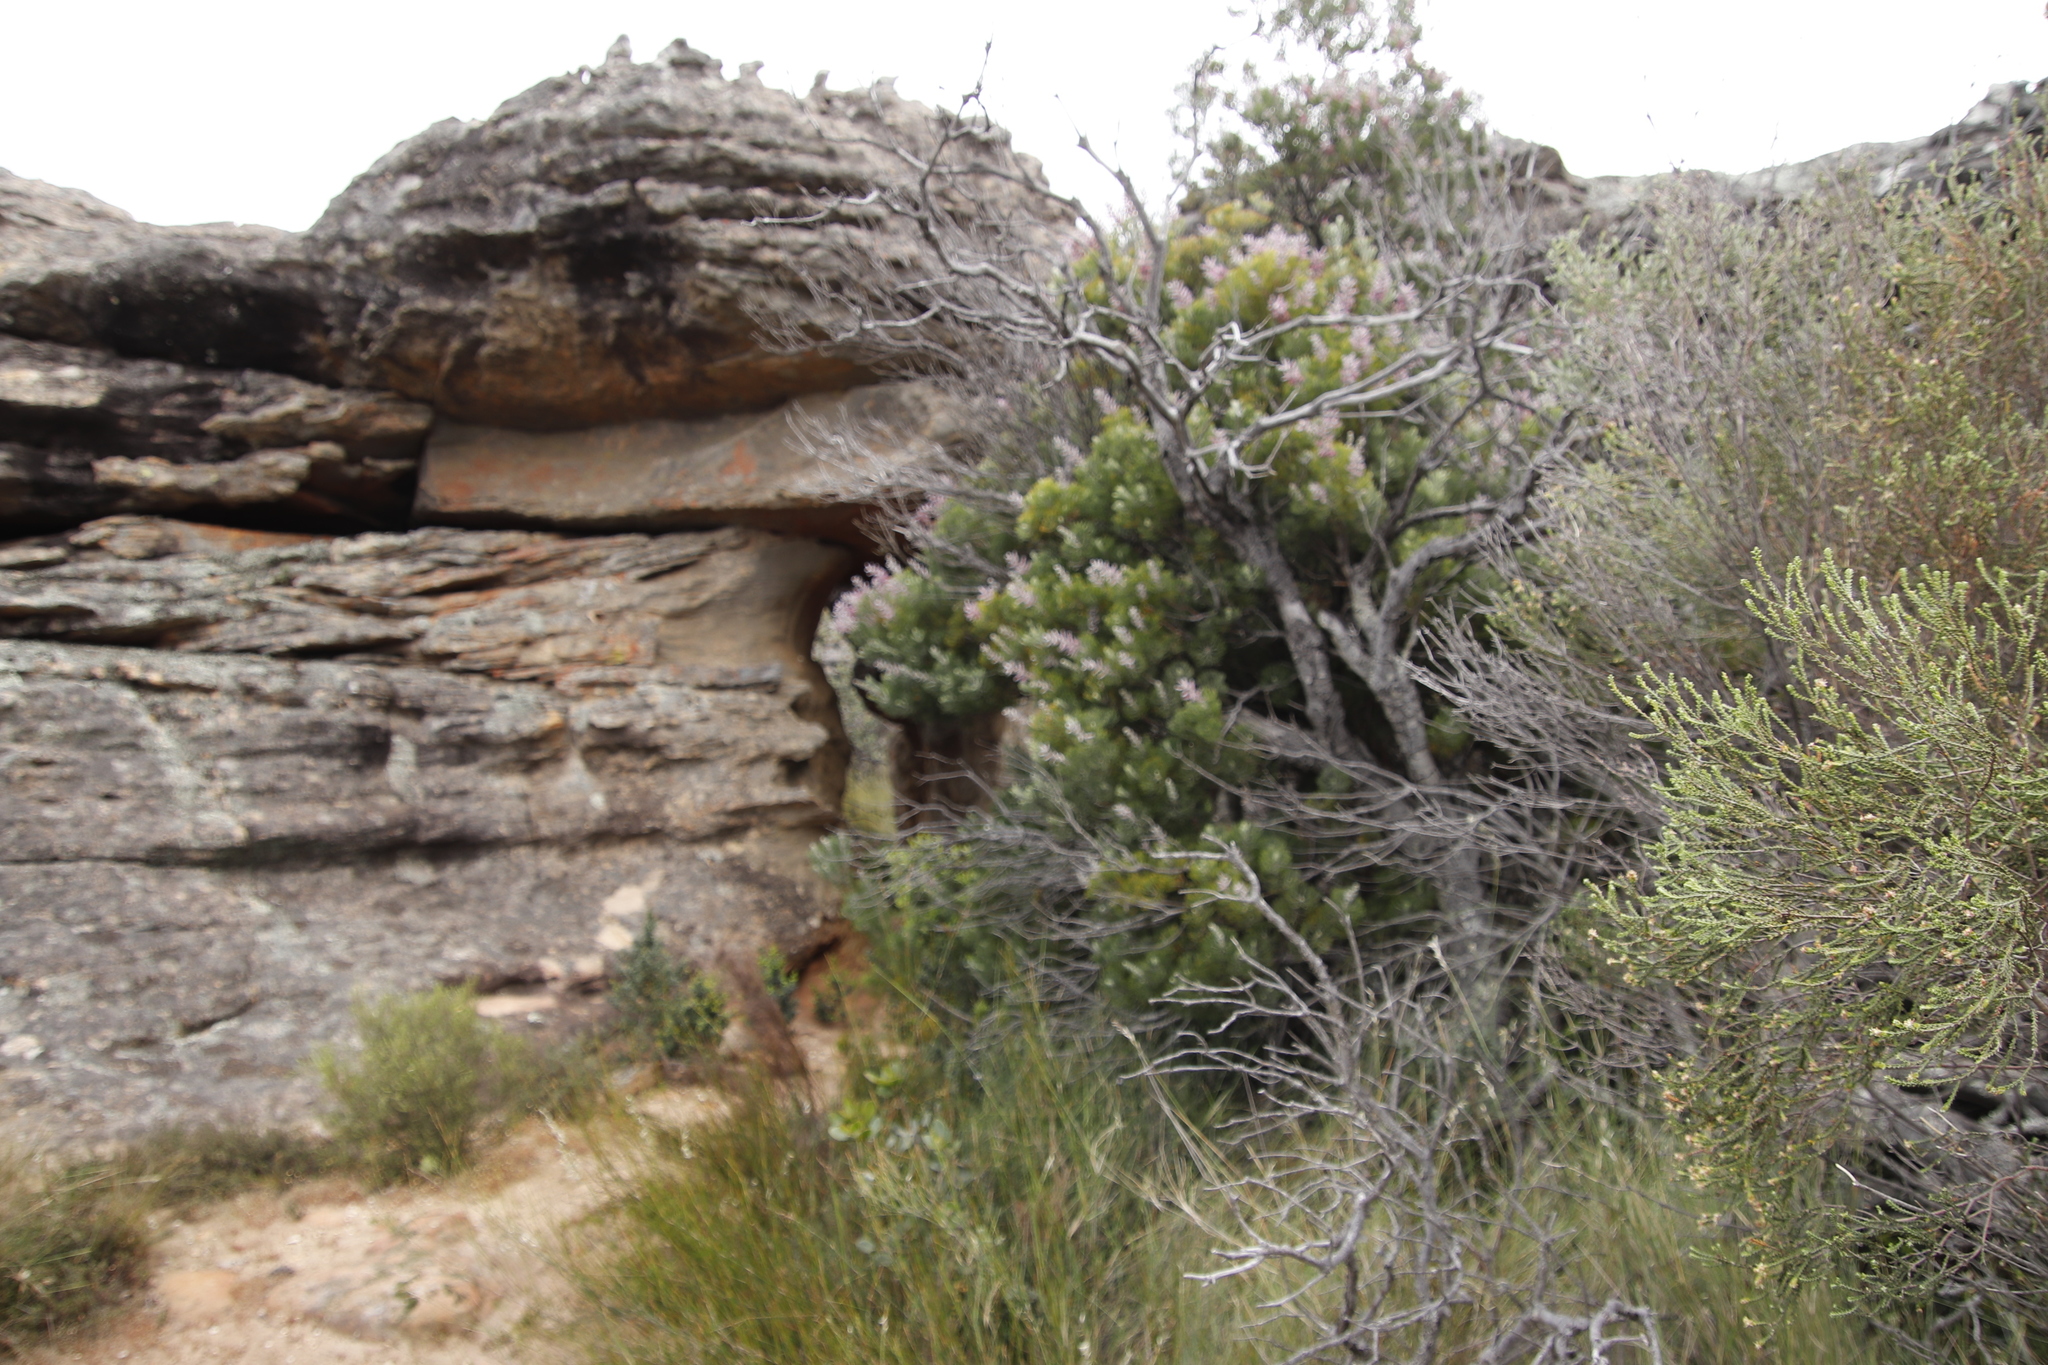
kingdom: Plantae
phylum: Tracheophyta
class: Magnoliopsida
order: Proteales
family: Proteaceae
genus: Paranomus
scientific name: Paranomus bracteolaris
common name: Bokkeveld tree sceptre
